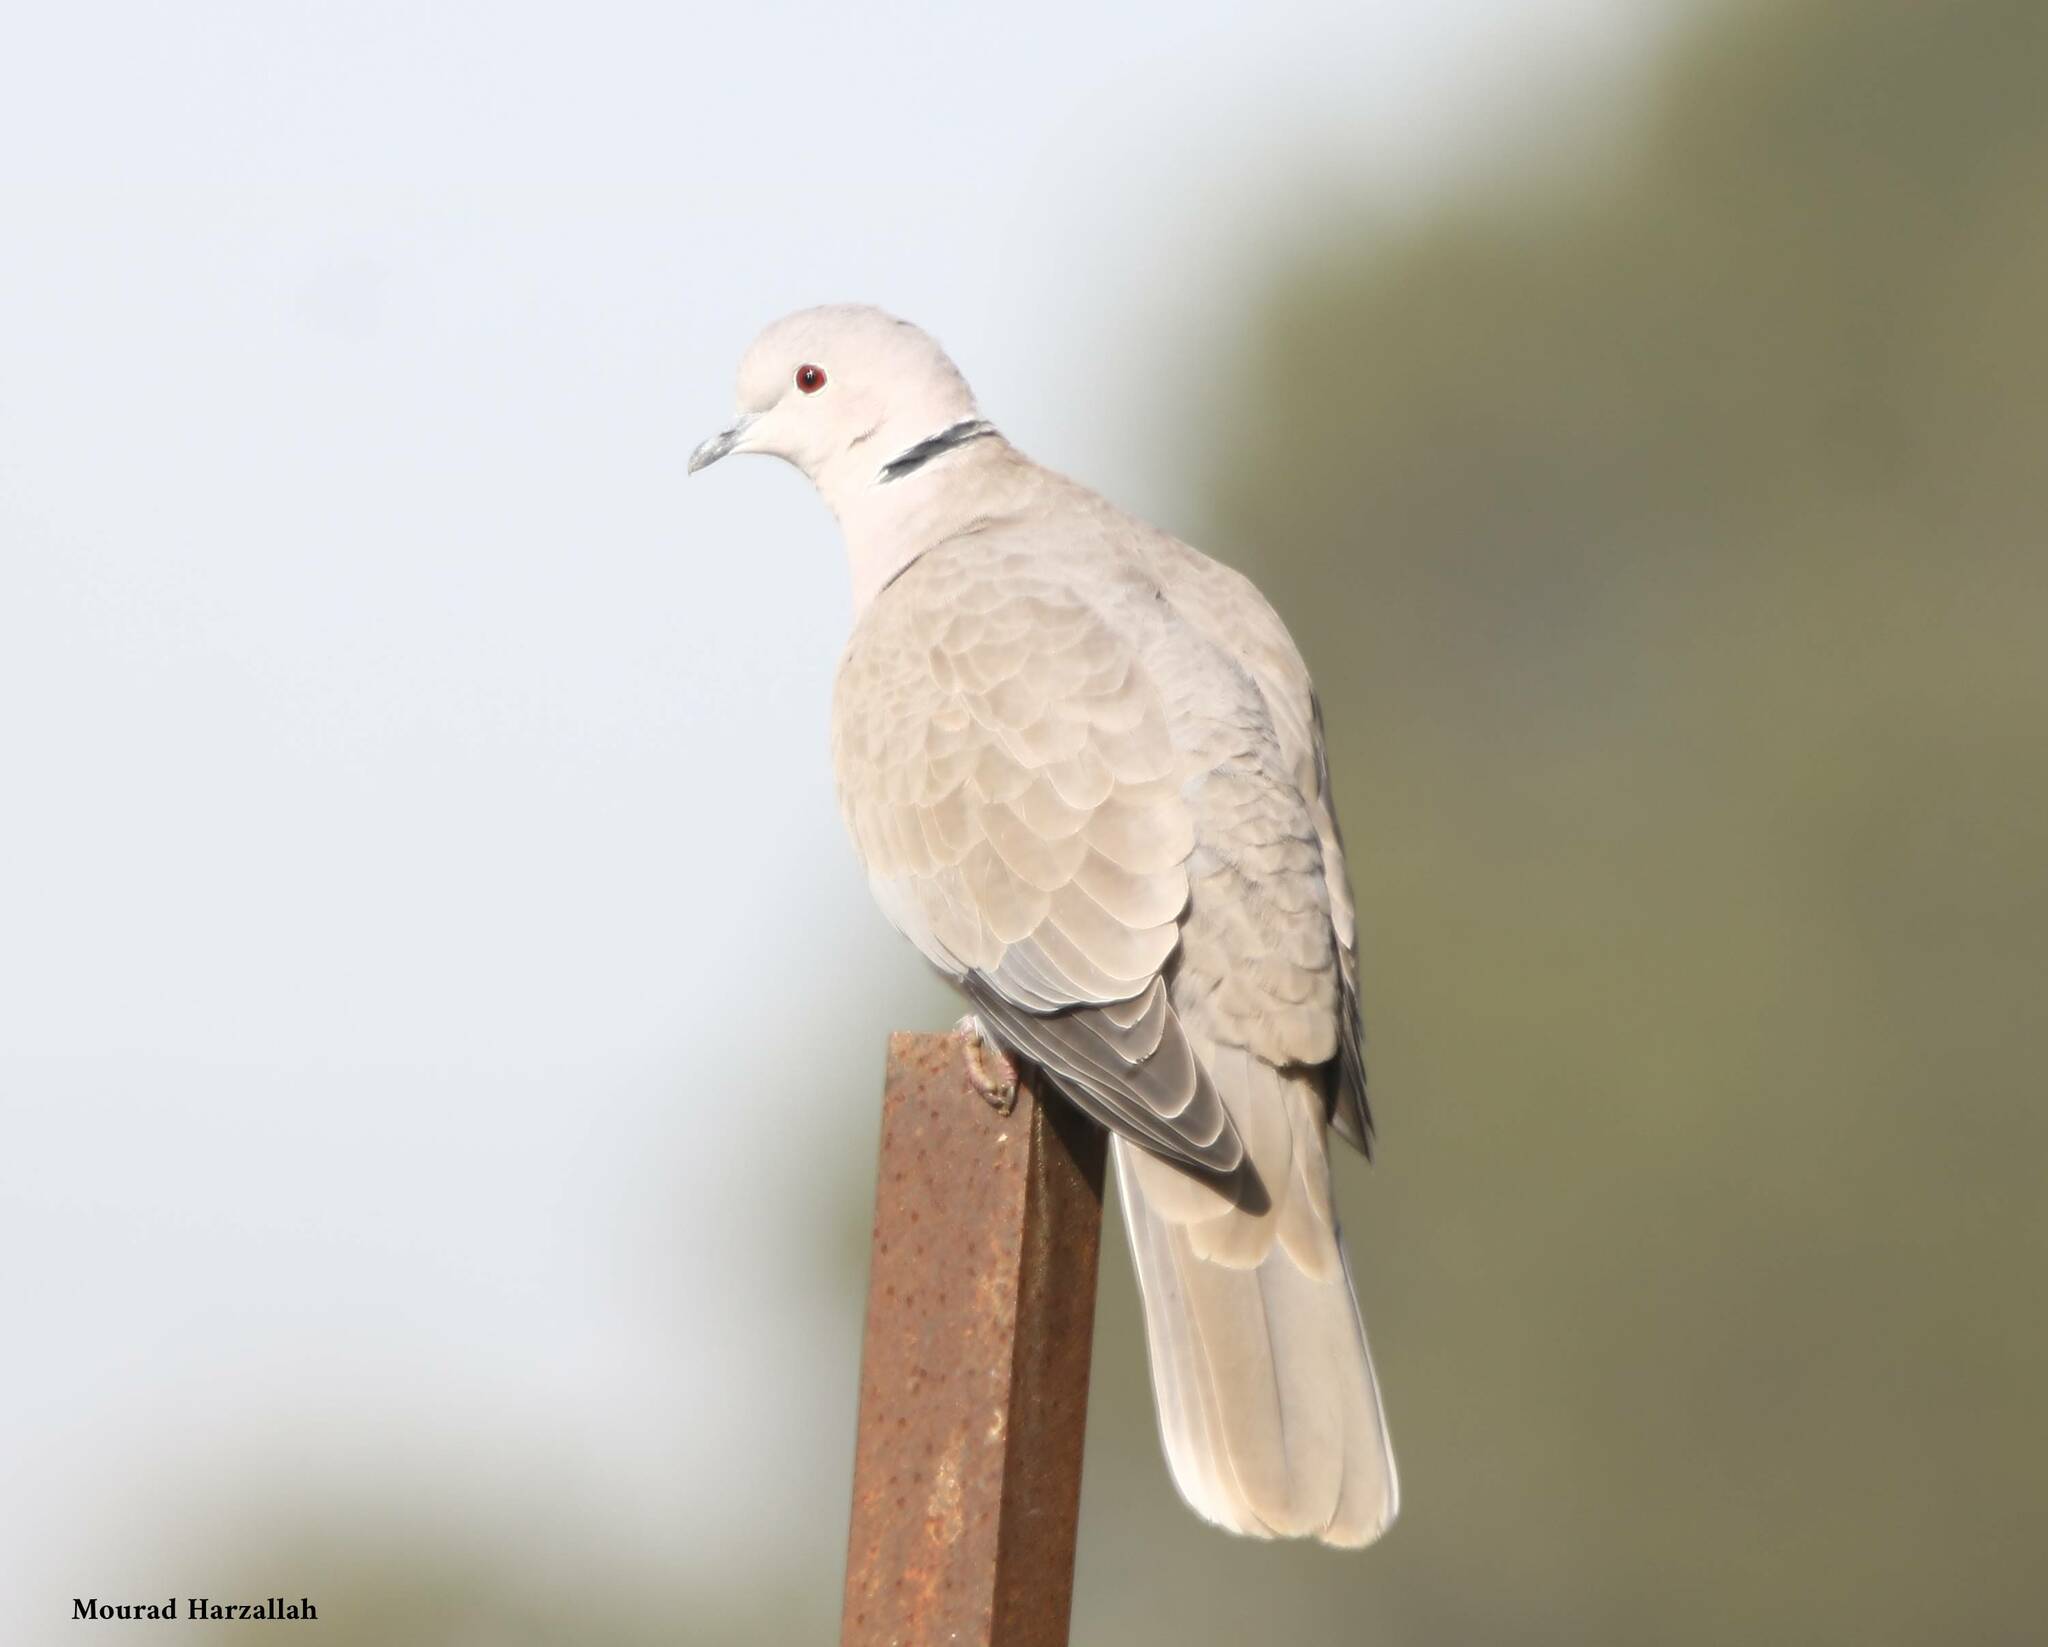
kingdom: Animalia
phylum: Chordata
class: Aves
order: Columbiformes
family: Columbidae
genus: Streptopelia
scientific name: Streptopelia decaocto
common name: Eurasian collared dove
